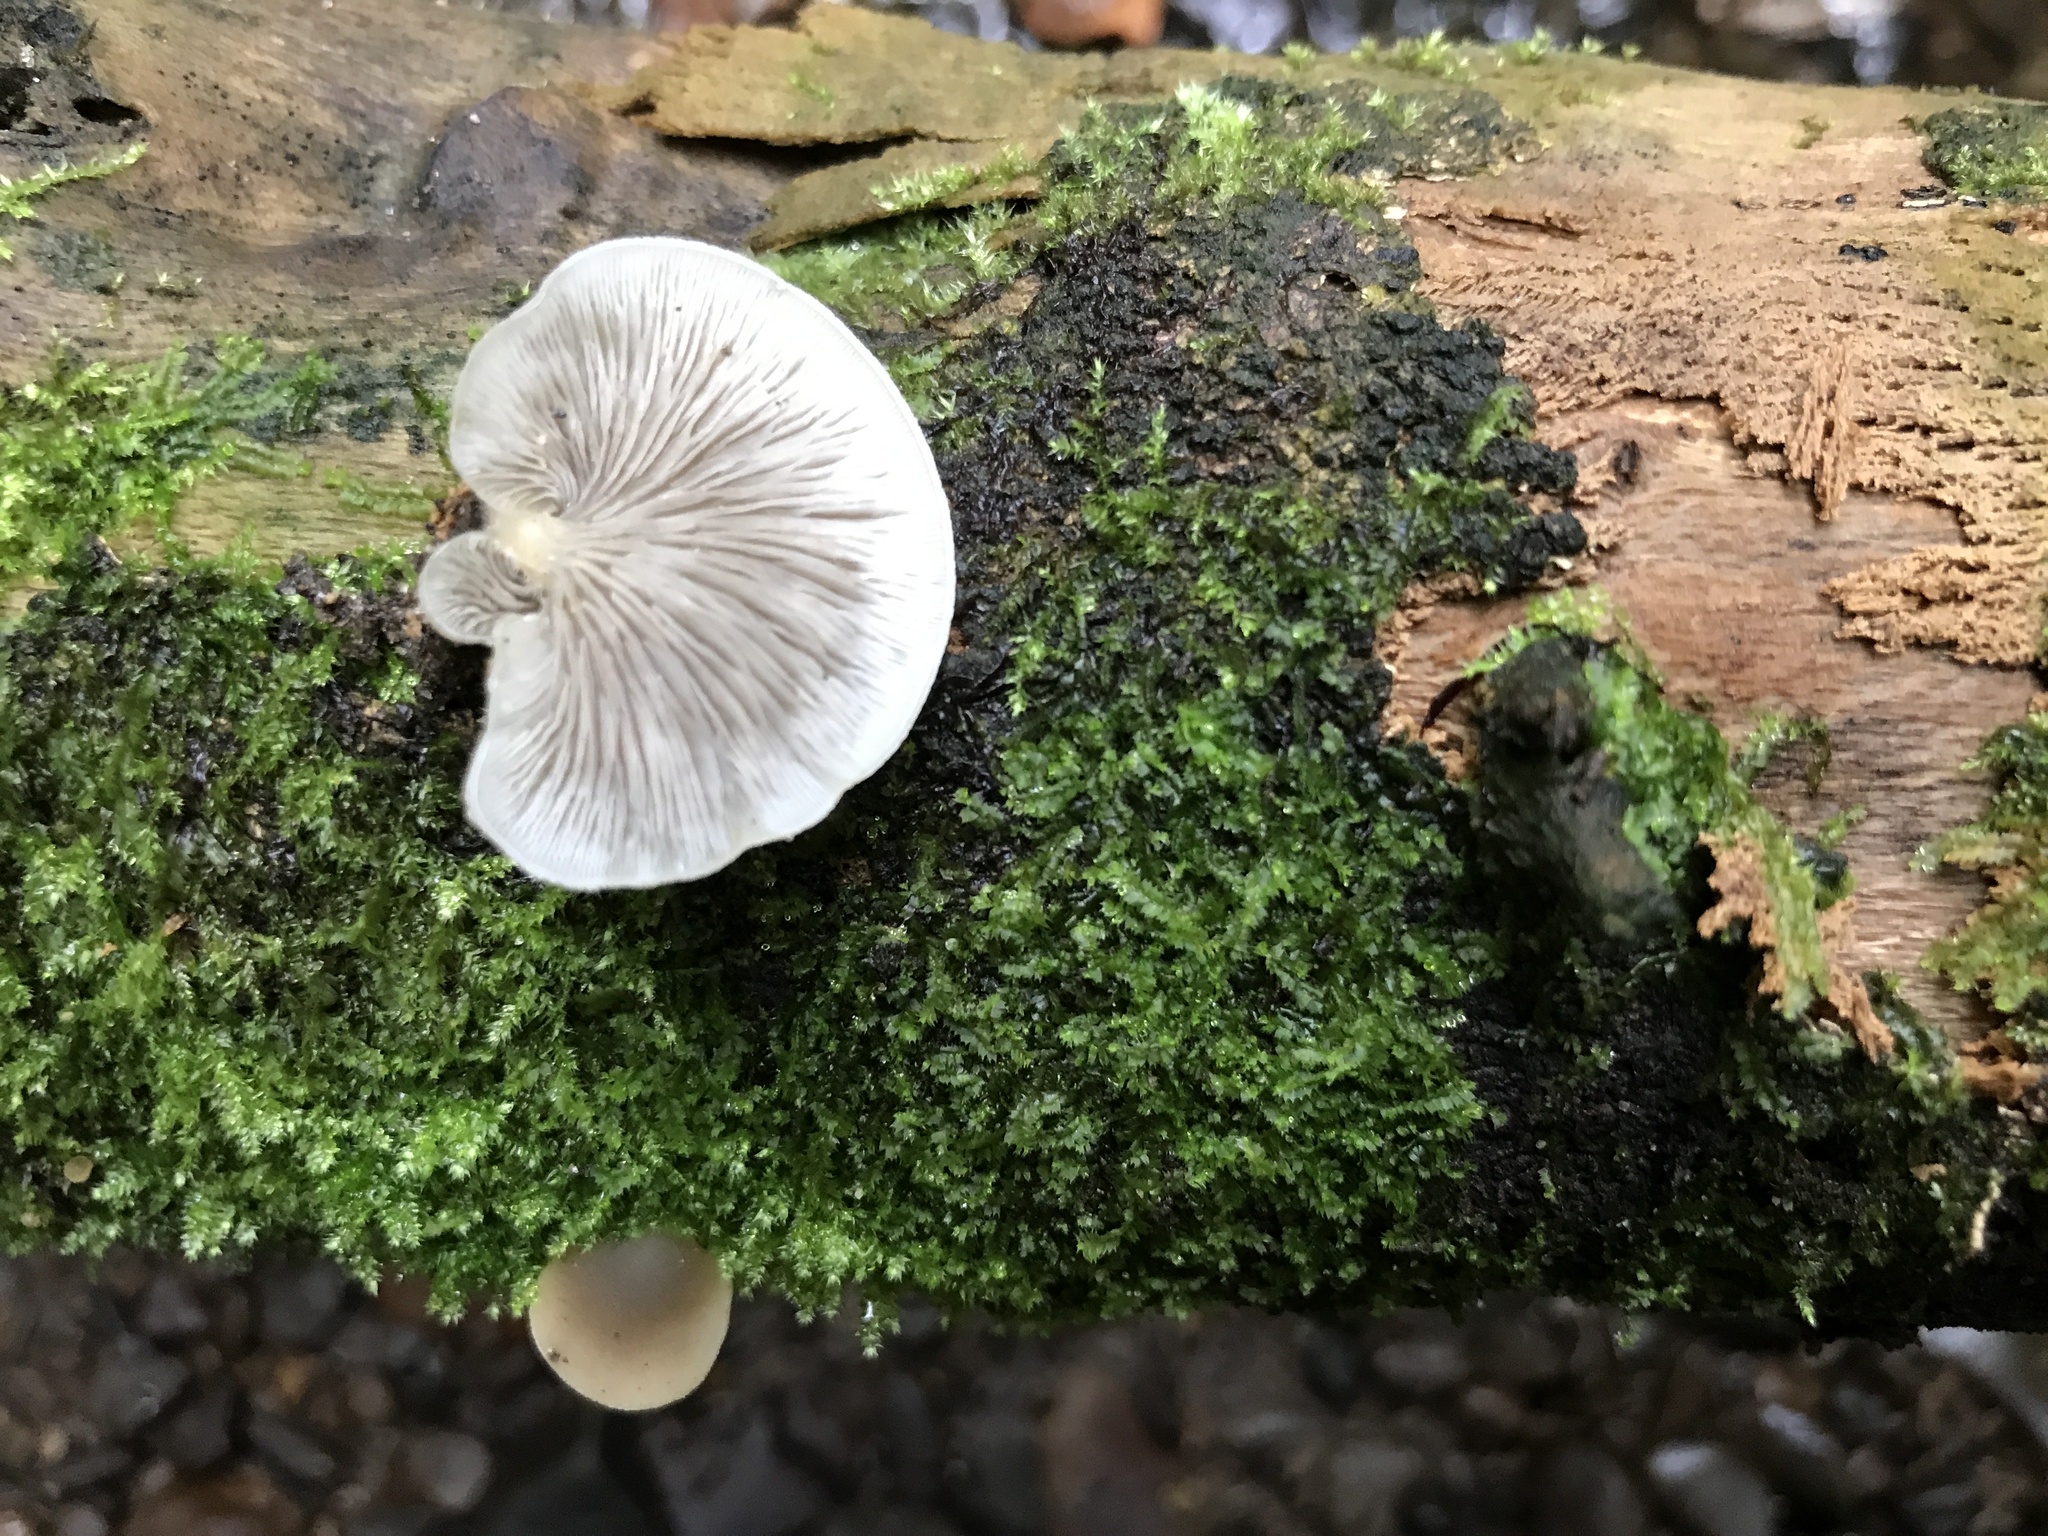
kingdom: Fungi
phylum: Basidiomycota
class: Agaricomycetes
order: Agaricales
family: Tricholomataceae
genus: Conchomyces
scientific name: Conchomyces bursiformis
